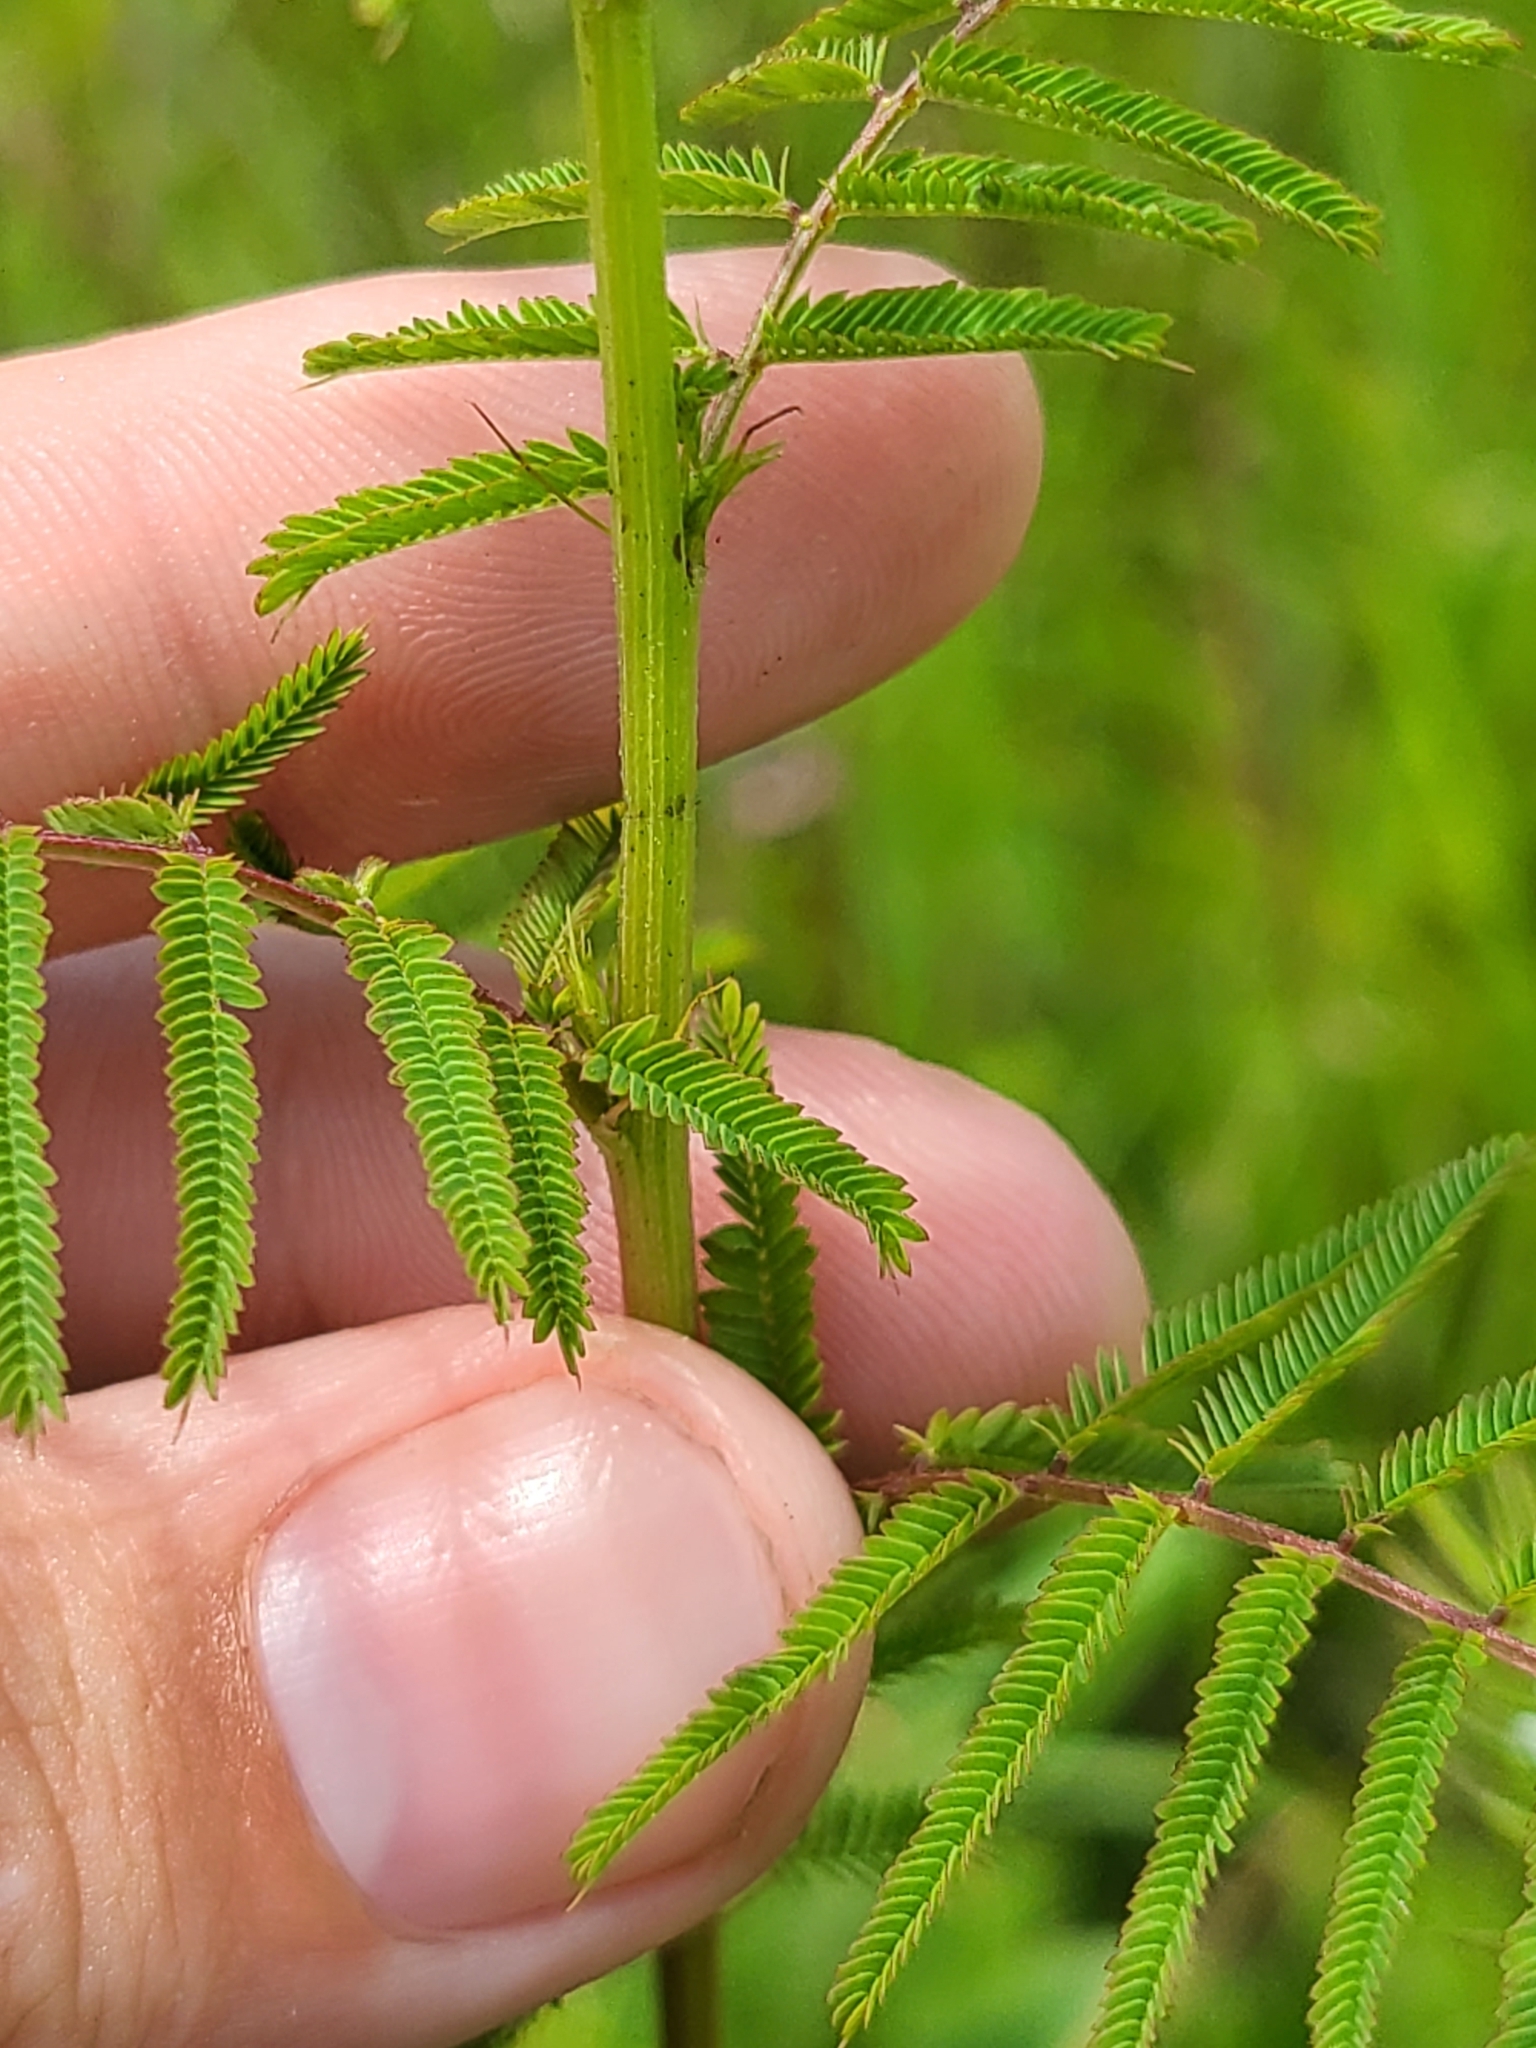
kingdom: Plantae
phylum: Tracheophyta
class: Magnoliopsida
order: Fabales
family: Fabaceae
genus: Desmanthus
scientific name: Desmanthus illinoensis
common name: Illinois bundle-flower
